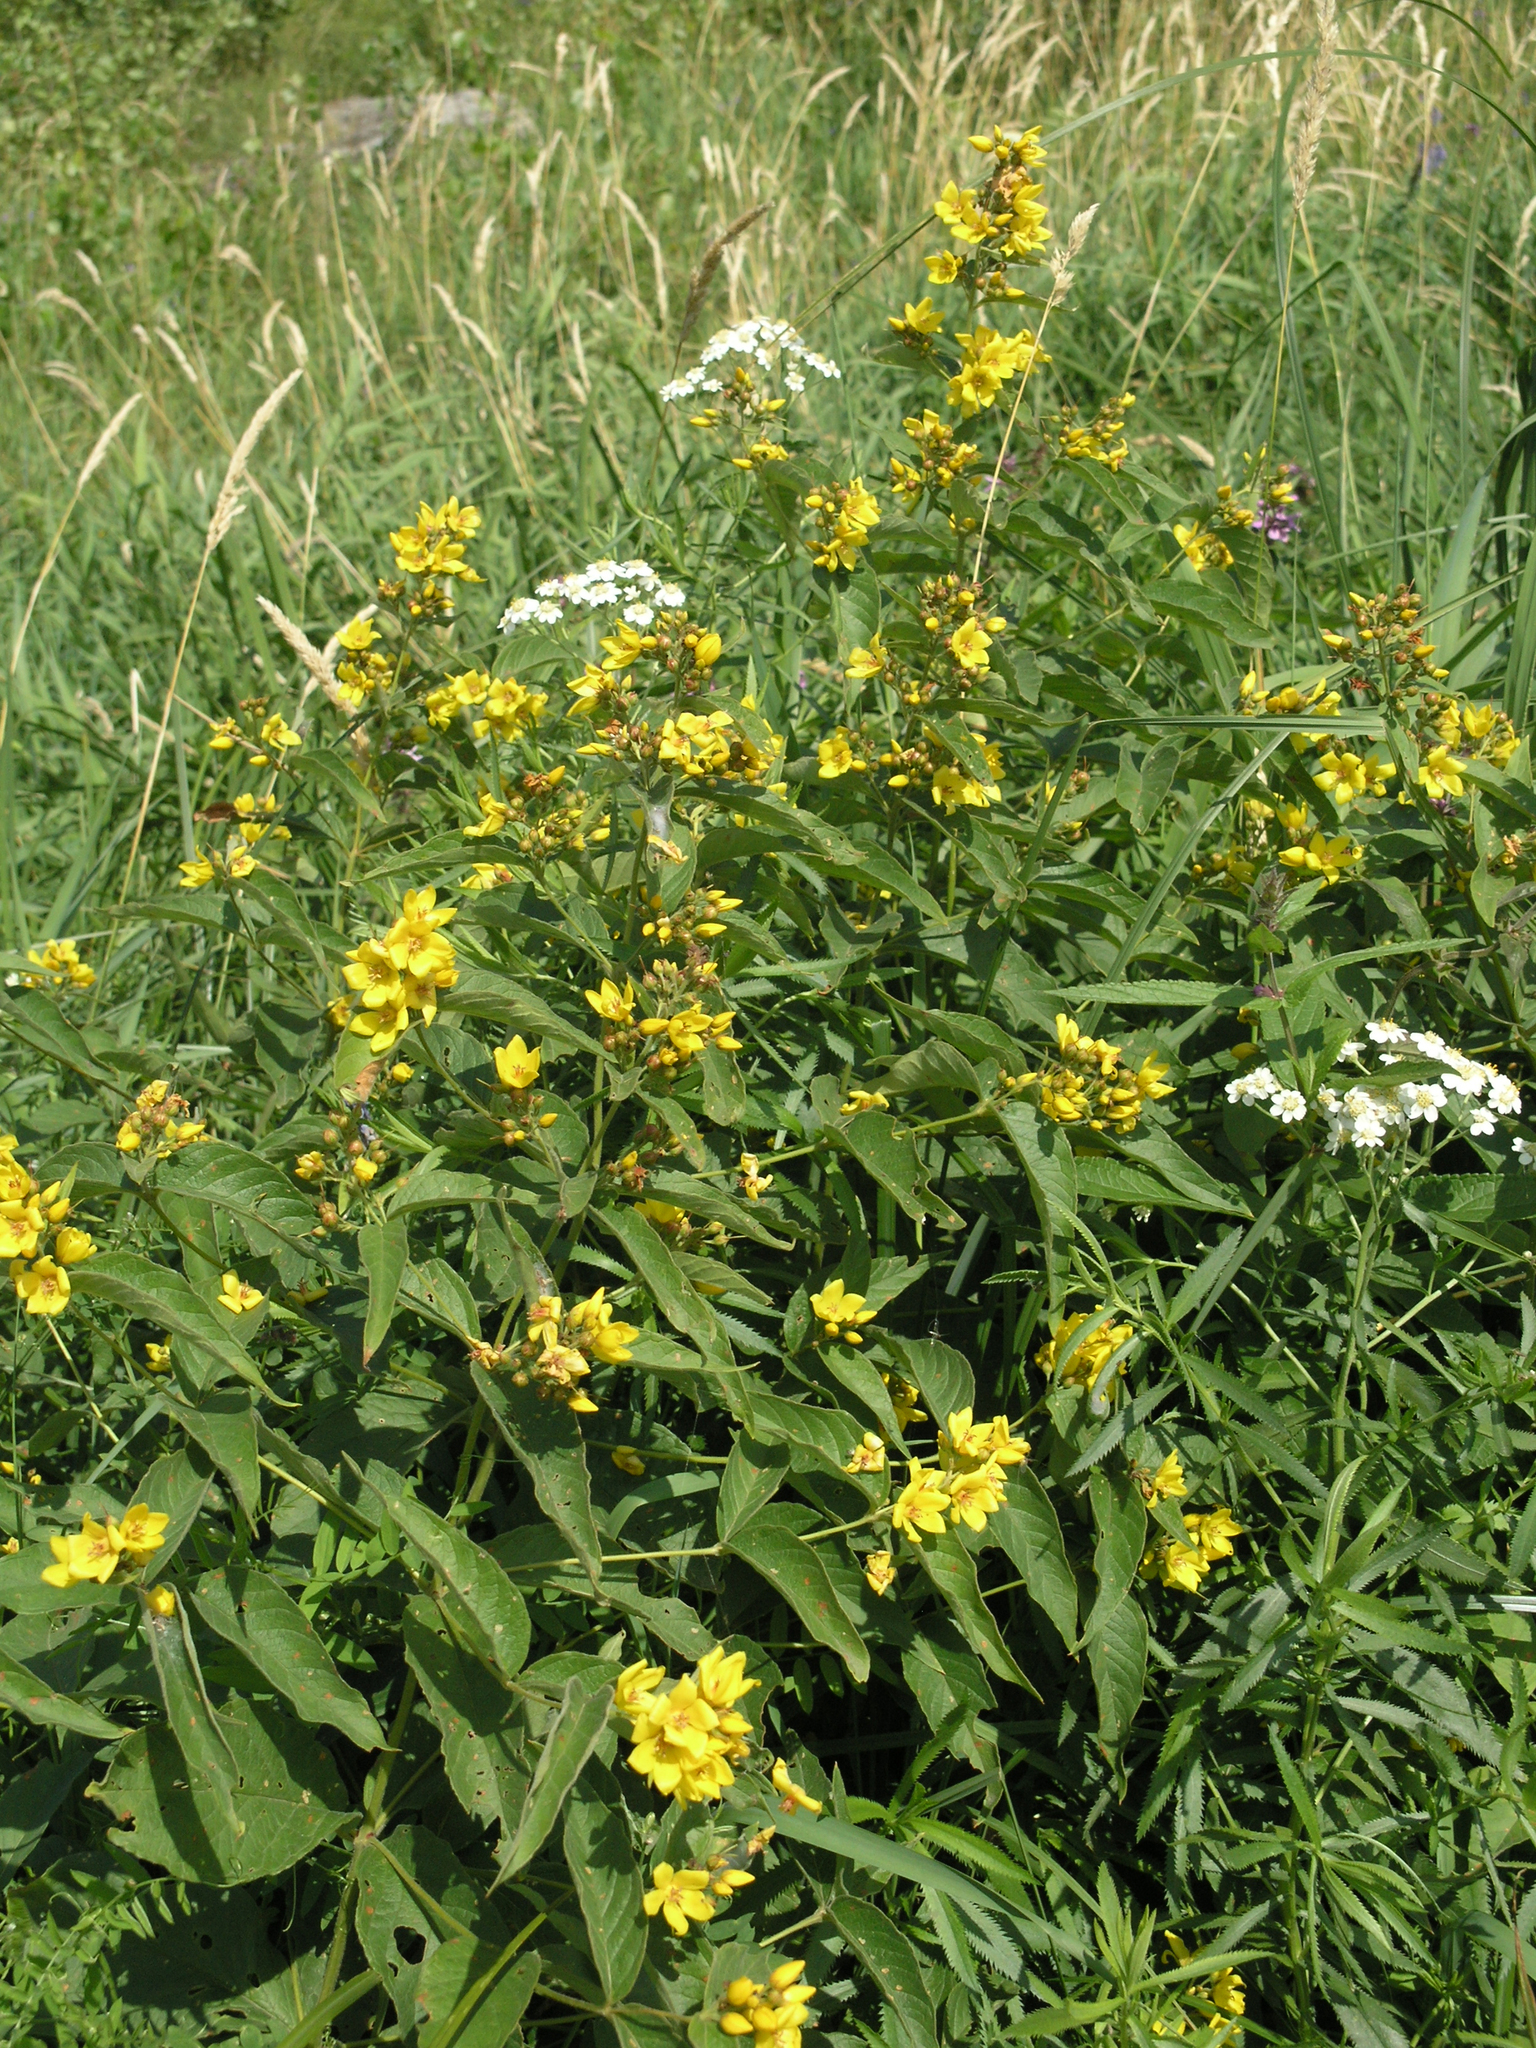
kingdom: Plantae
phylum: Tracheophyta
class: Magnoliopsida
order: Ericales
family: Primulaceae
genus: Lysimachia
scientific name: Lysimachia vulgaris
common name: Yellow loosestrife
